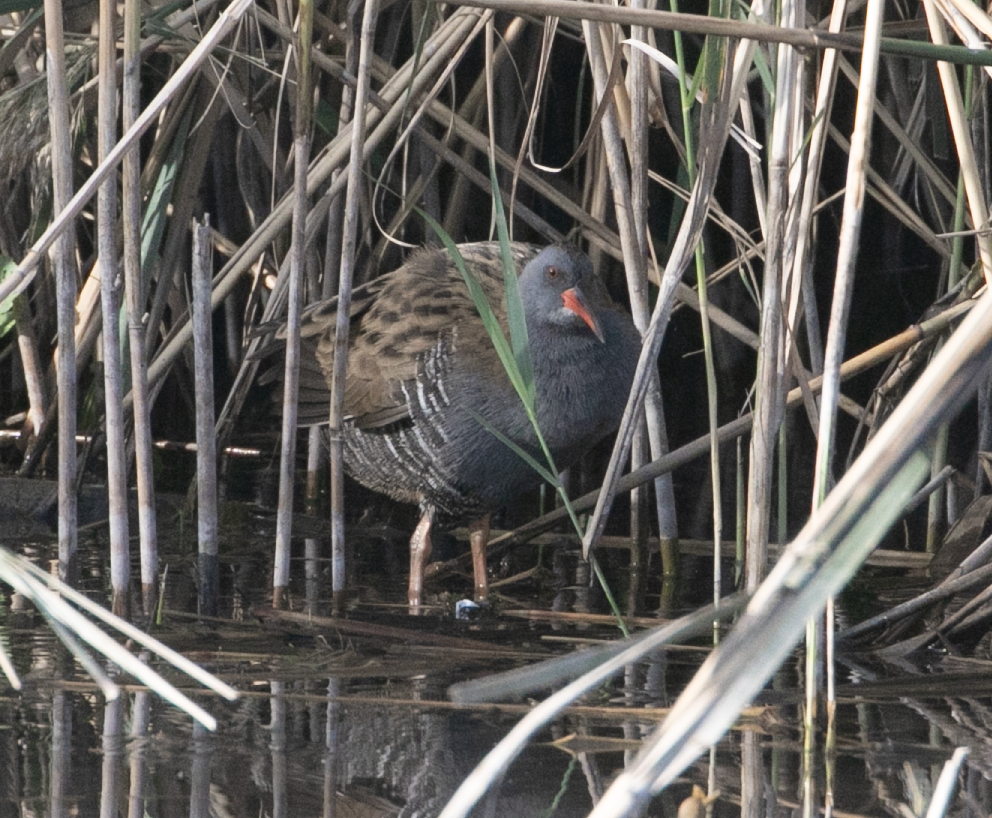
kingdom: Animalia
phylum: Chordata
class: Aves
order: Gruiformes
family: Rallidae
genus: Rallus
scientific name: Rallus aquaticus
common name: Water rail
